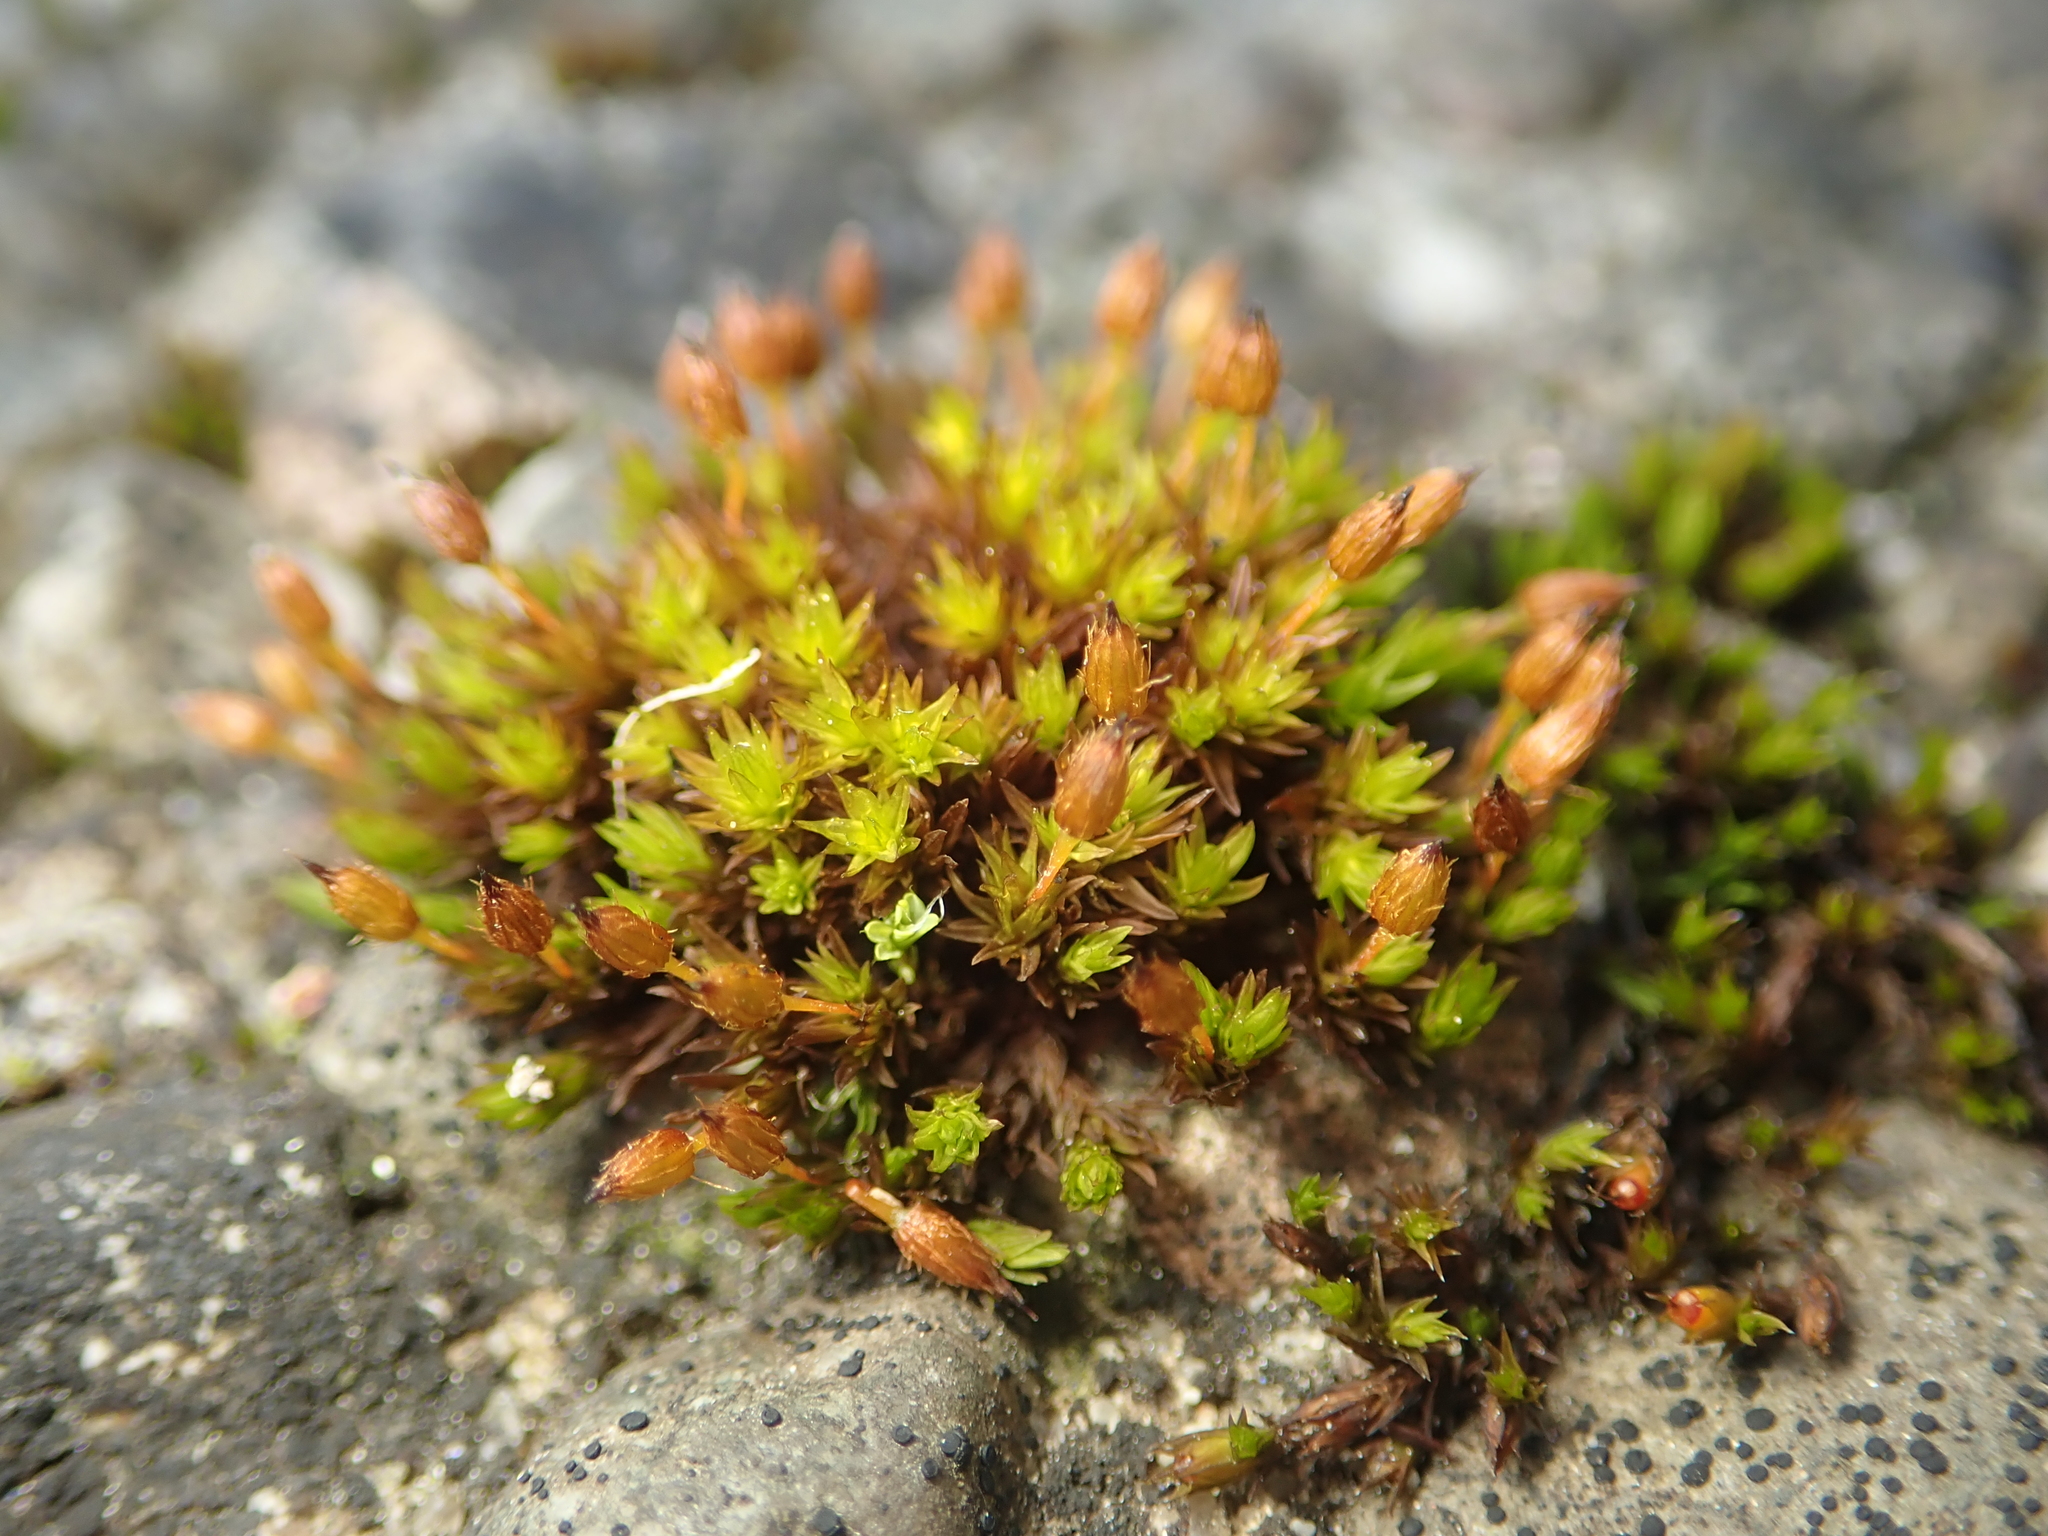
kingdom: Plantae
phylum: Bryophyta
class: Bryopsida
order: Orthotrichales
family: Orthotrichaceae
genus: Orthotrichum
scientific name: Orthotrichum anomalum
